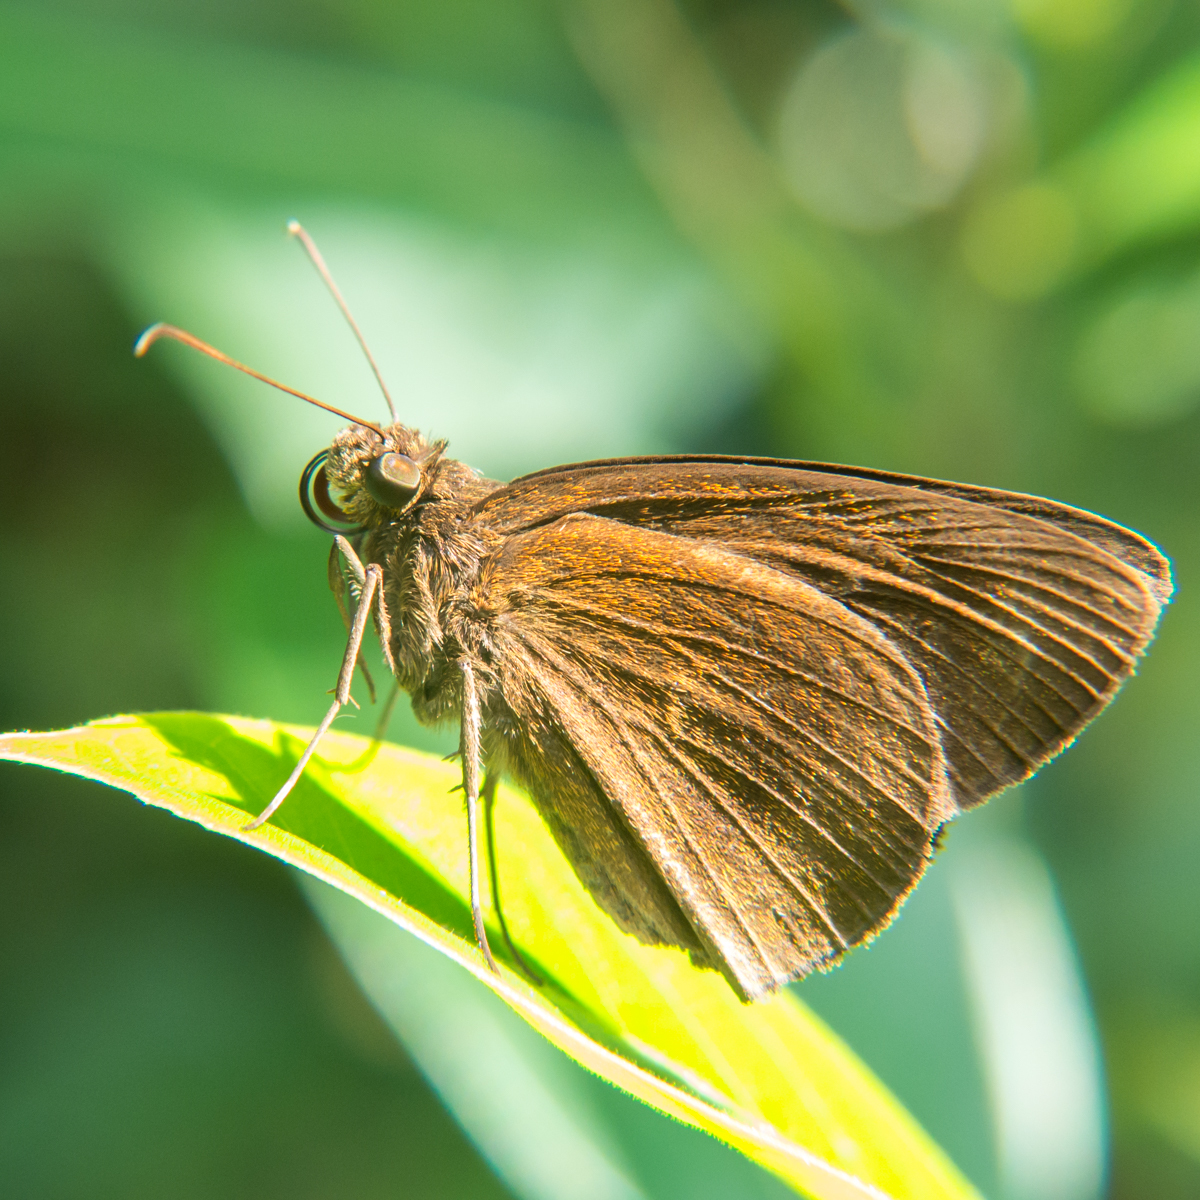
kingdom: Animalia
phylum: Arthropoda
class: Insecta
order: Lepidoptera
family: Hesperiidae
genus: Ancistroides
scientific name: Ancistroides nigrita
